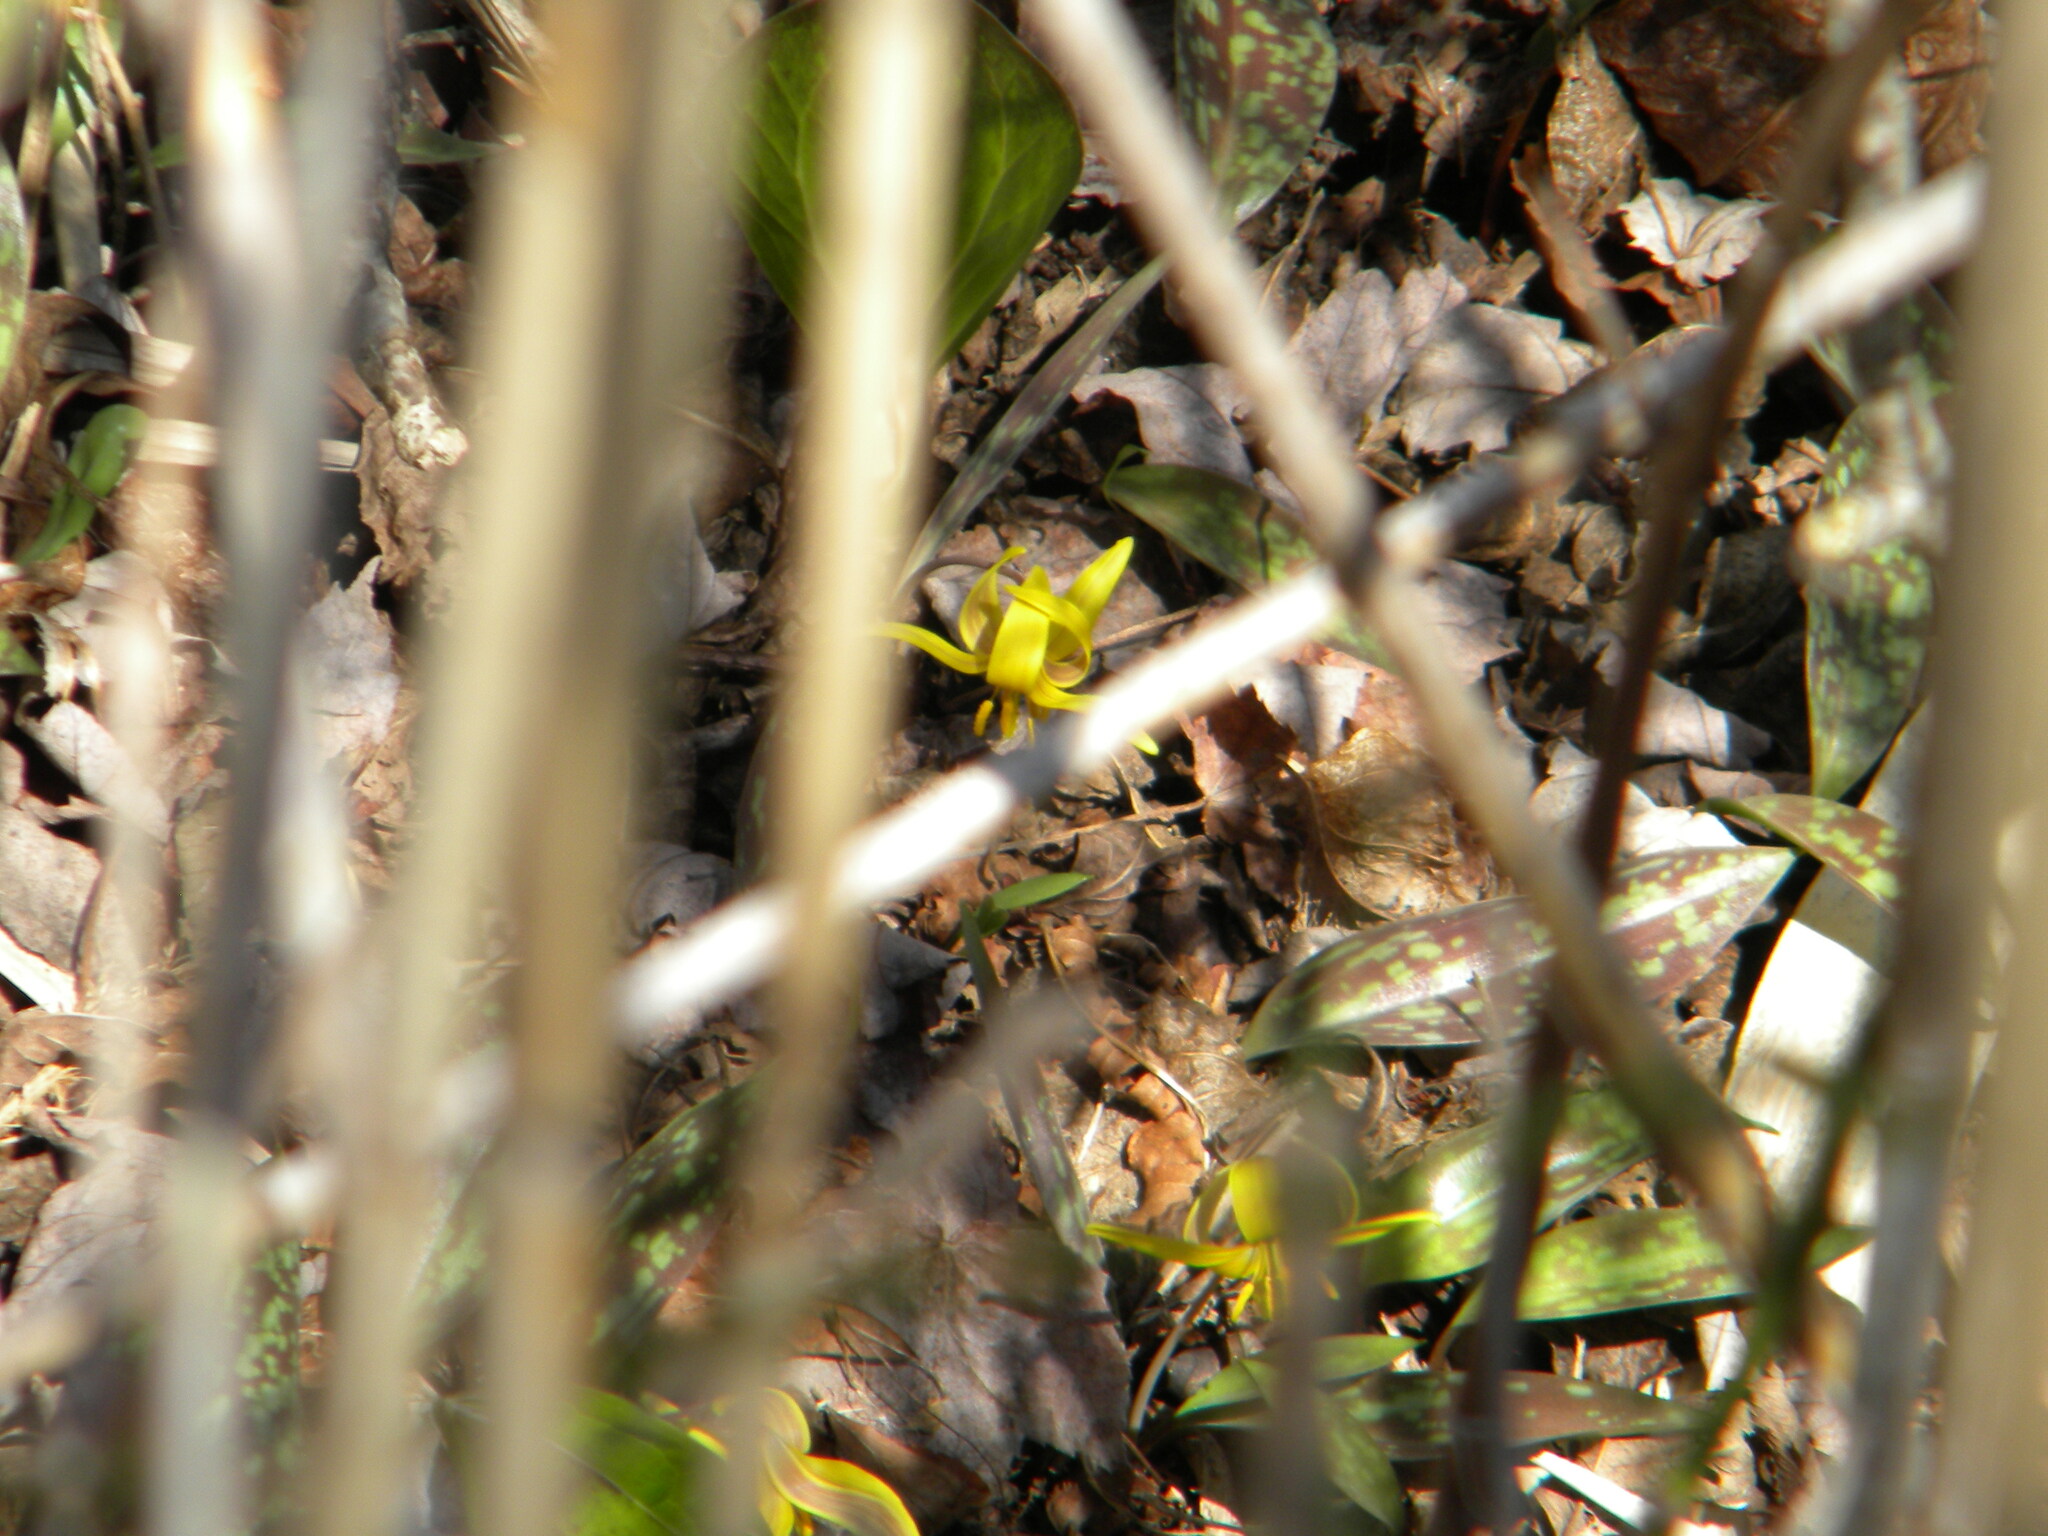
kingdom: Plantae
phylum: Tracheophyta
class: Liliopsida
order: Liliales
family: Liliaceae
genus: Erythronium
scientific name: Erythronium americanum
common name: Yellow adder's-tongue
